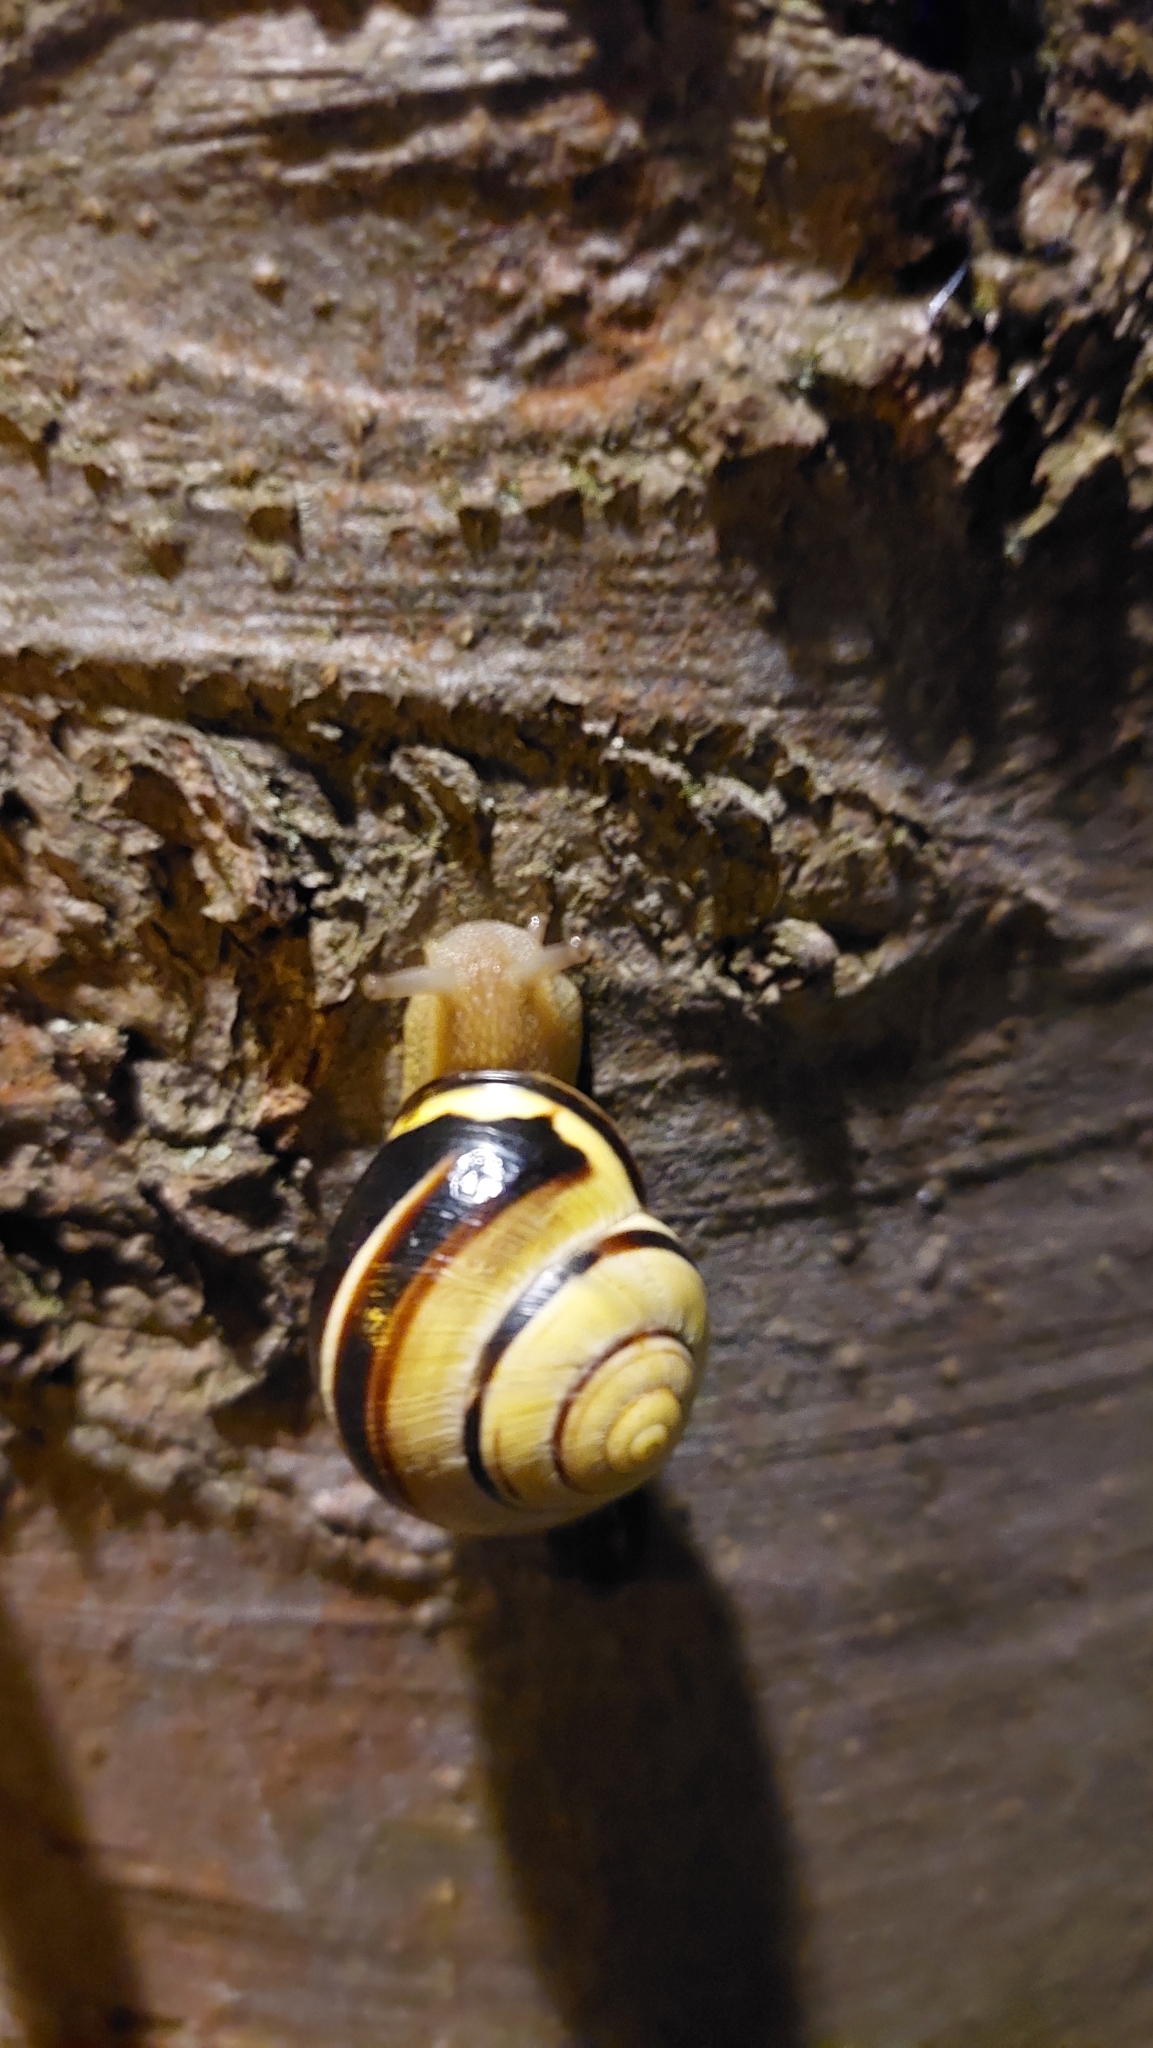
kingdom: Animalia
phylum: Mollusca
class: Gastropoda
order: Stylommatophora
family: Helicidae
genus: Cepaea
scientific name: Cepaea nemoralis
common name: Grovesnail
